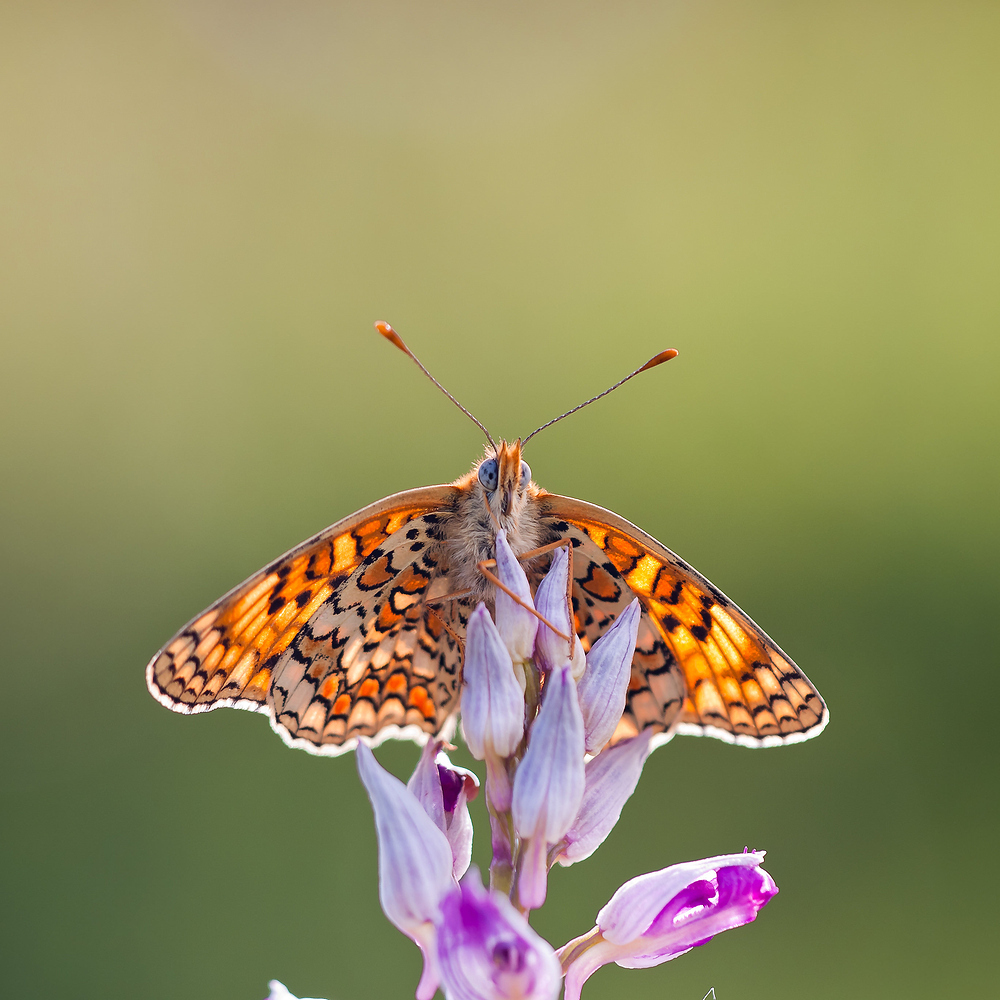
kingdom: Animalia
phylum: Arthropoda
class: Insecta
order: Lepidoptera
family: Nymphalidae
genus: Melitaea
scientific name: Melitaea phoebe
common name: Knapweed fritillary
